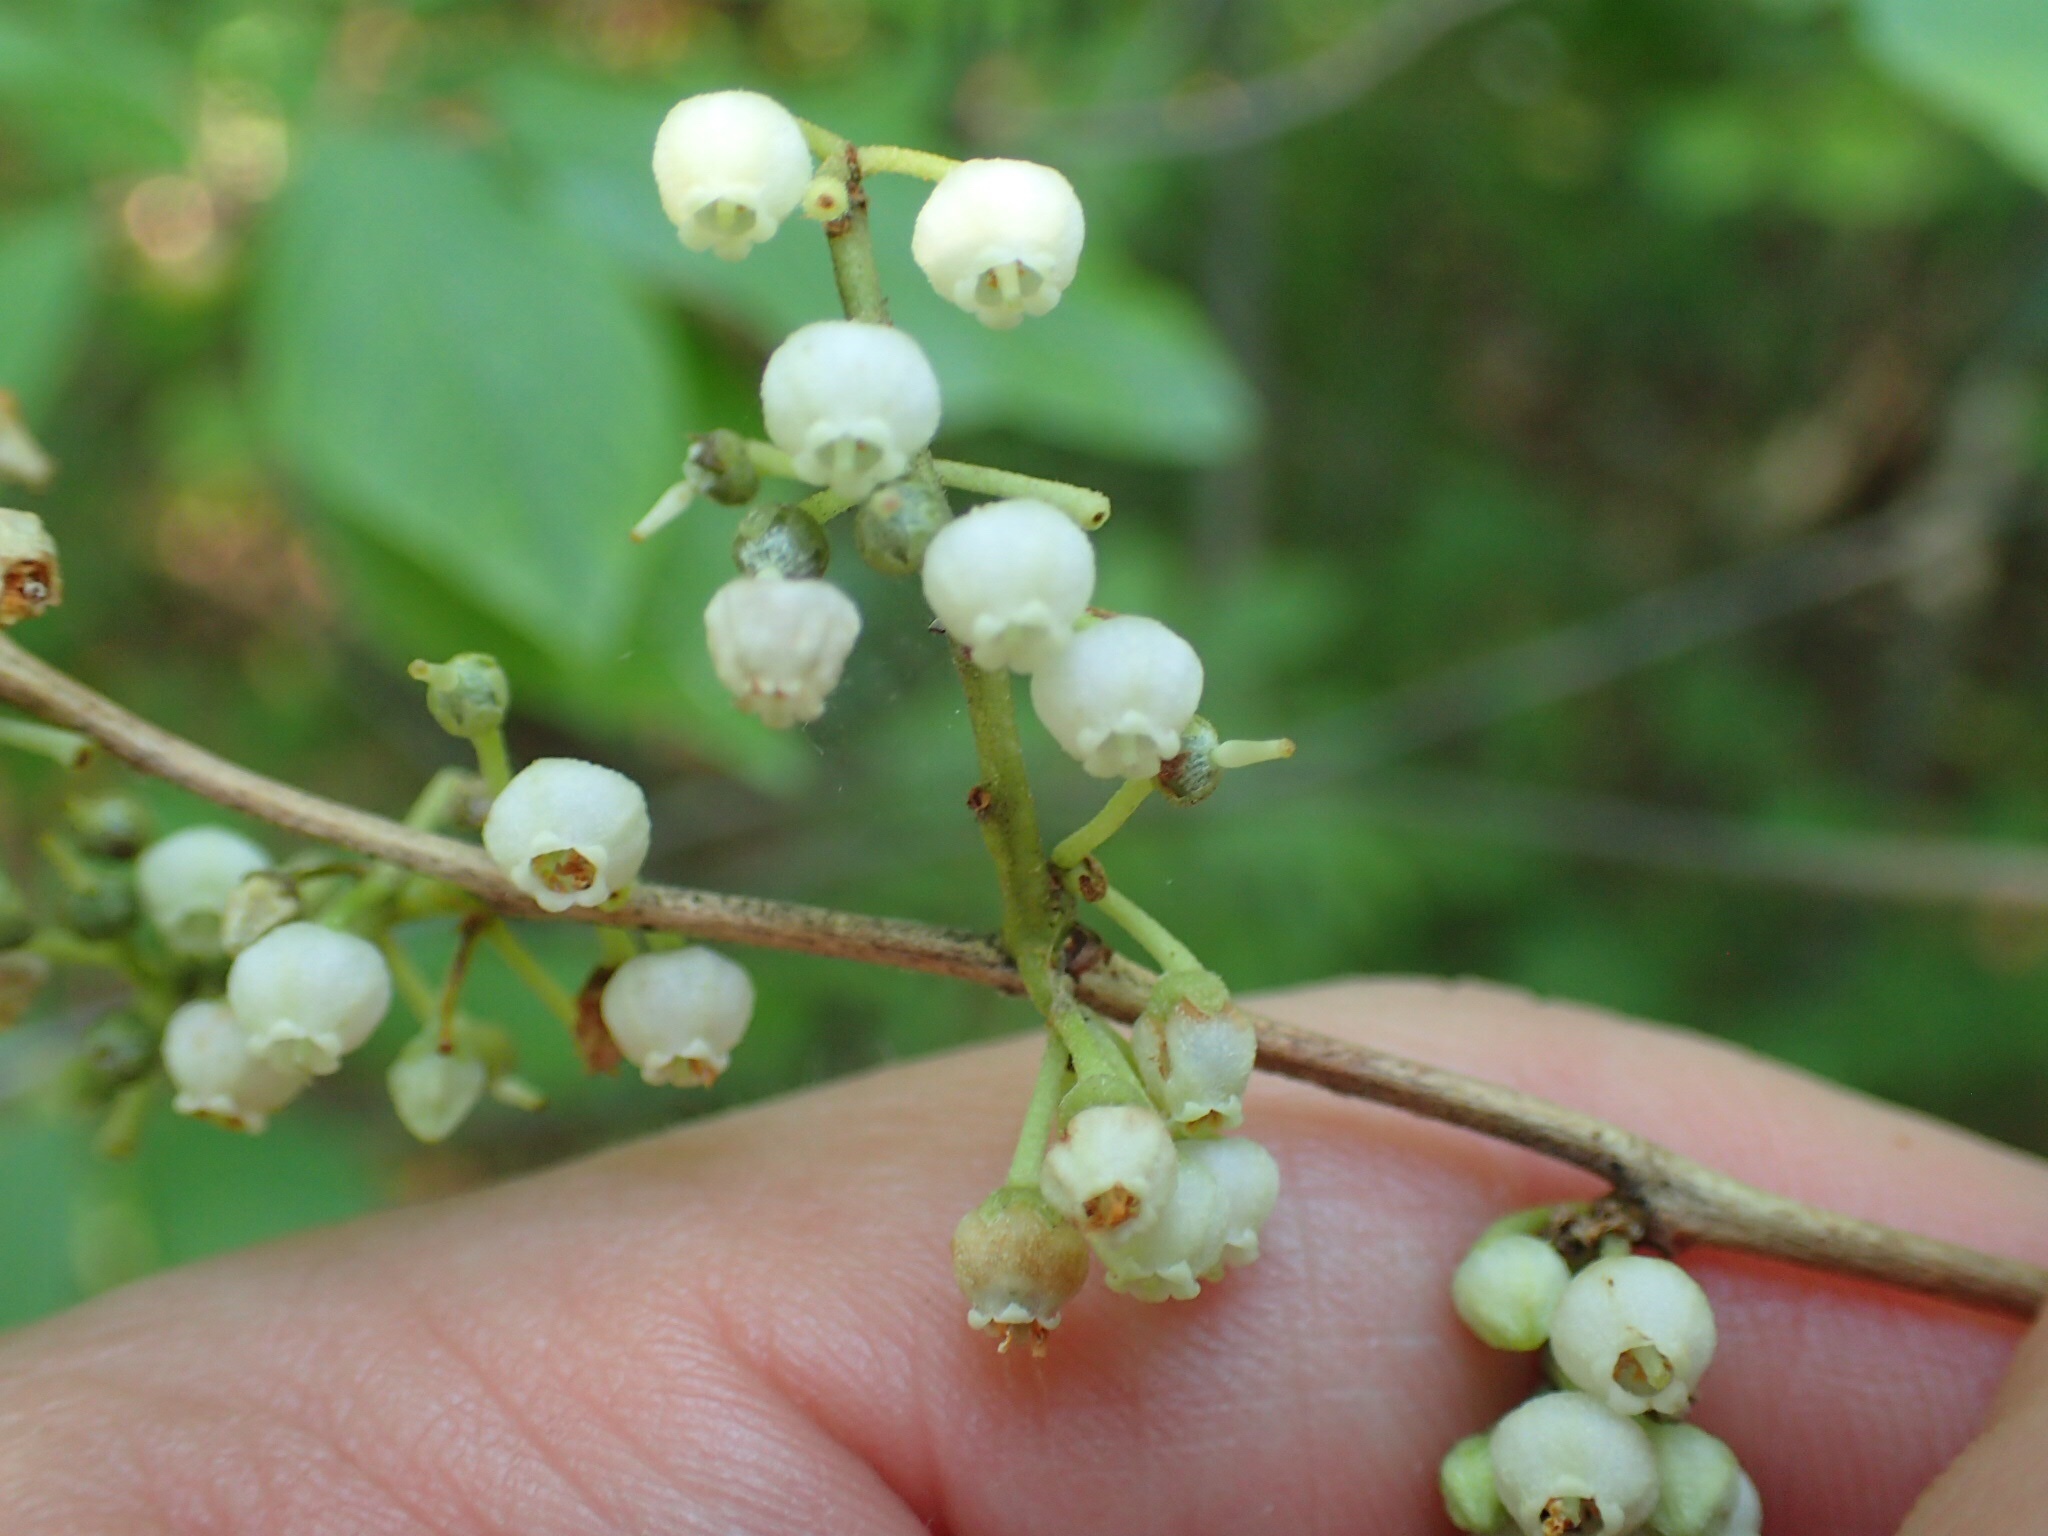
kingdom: Plantae
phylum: Tracheophyta
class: Magnoliopsida
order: Ericales
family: Ericaceae
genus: Lyonia
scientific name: Lyonia ligustrina
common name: Maleberry
